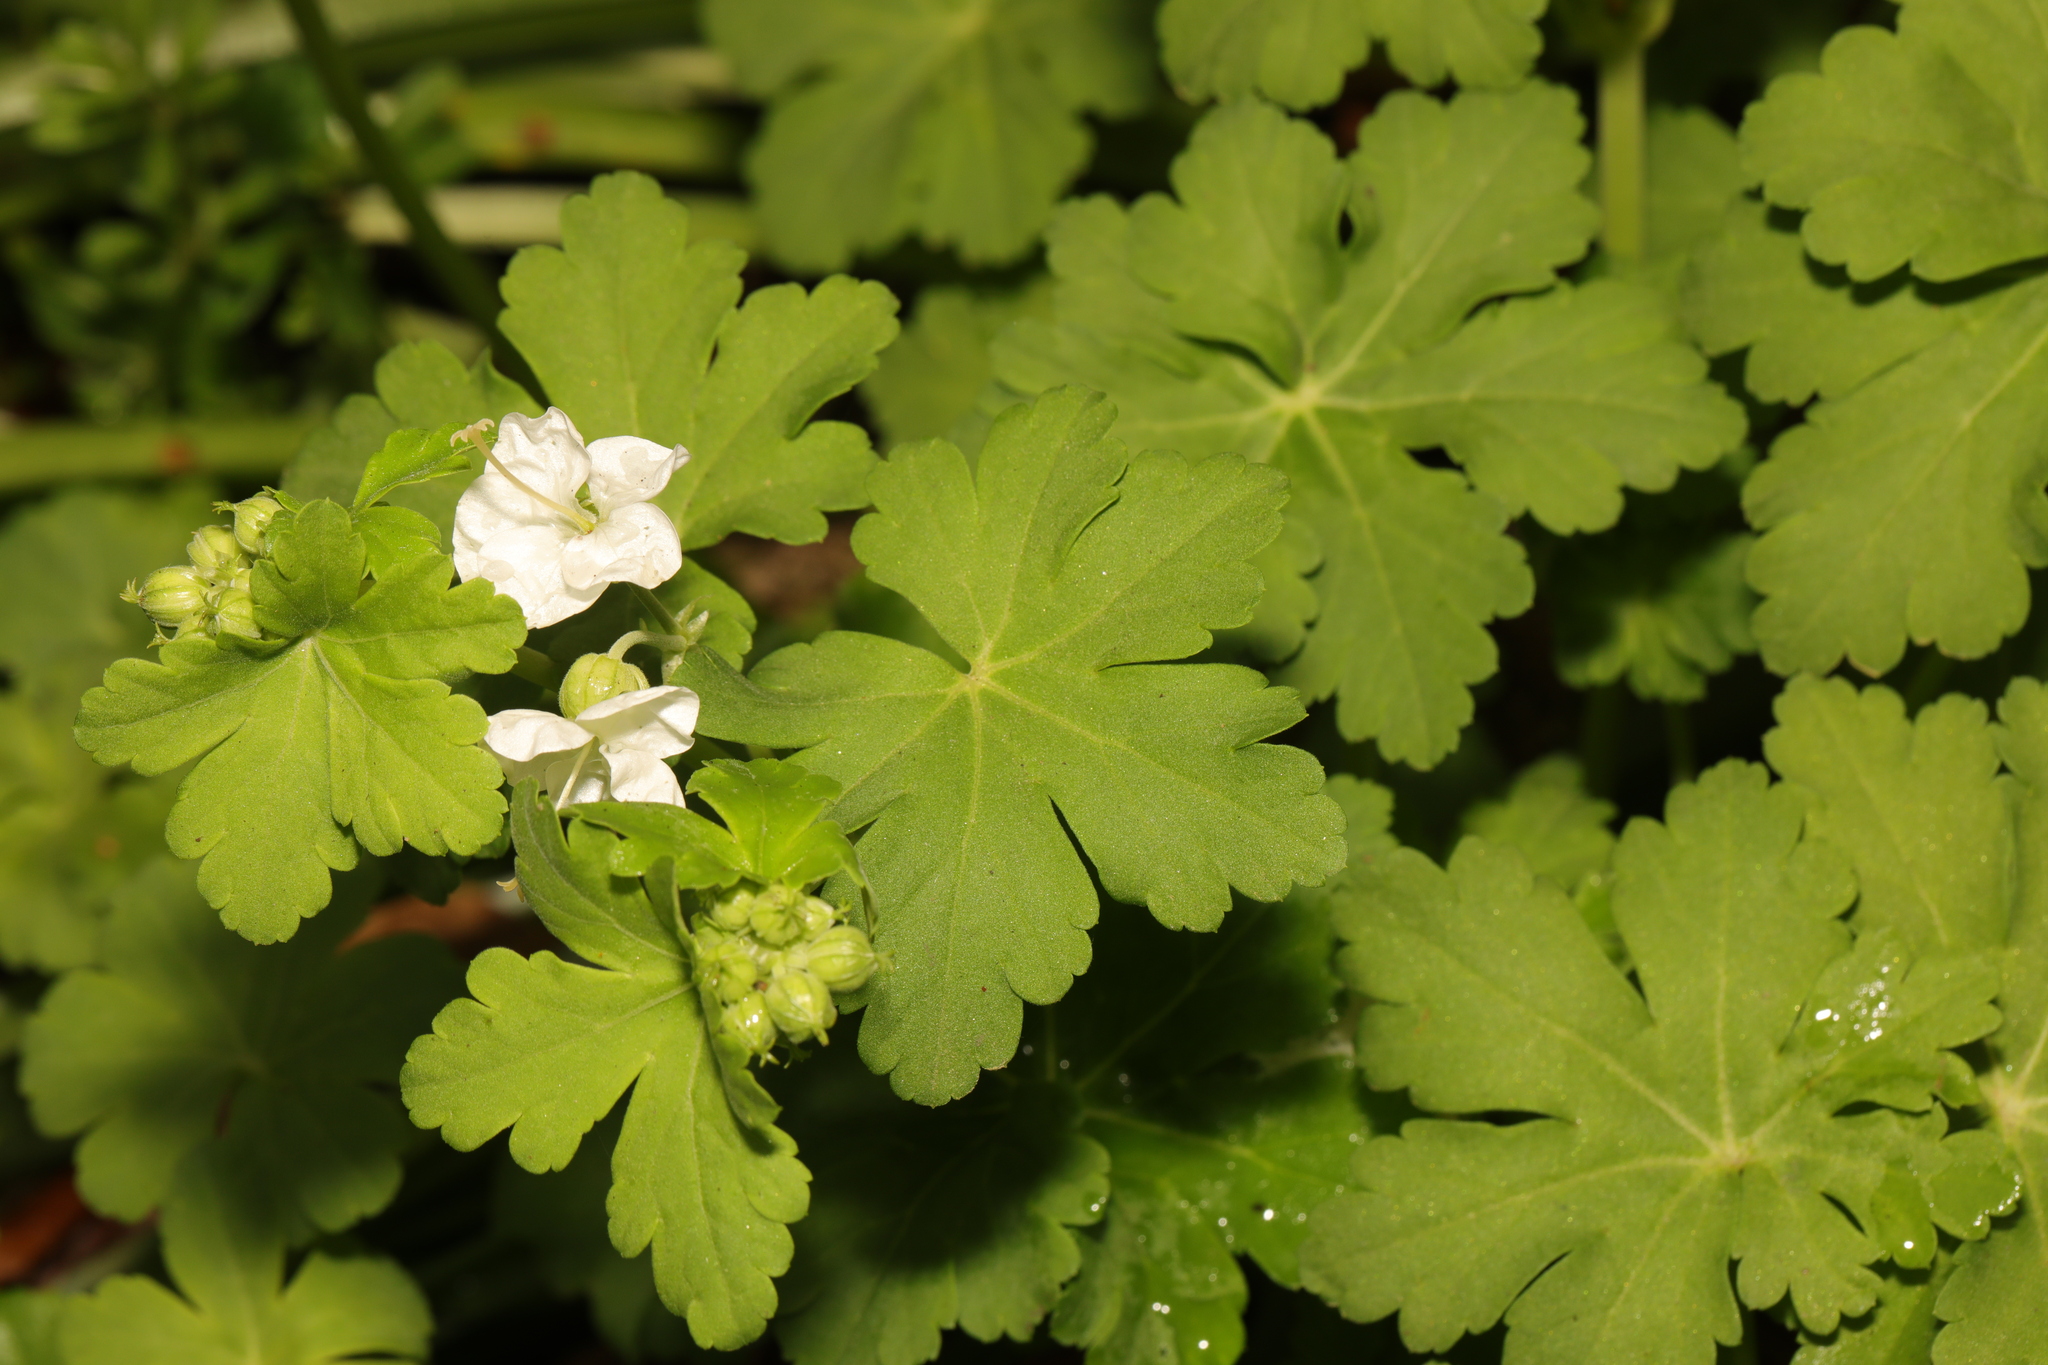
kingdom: Plantae
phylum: Tracheophyta
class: Magnoliopsida
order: Geraniales
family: Geraniaceae
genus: Geranium
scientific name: Geranium macrorrhizum
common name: Rock crane's-bill
